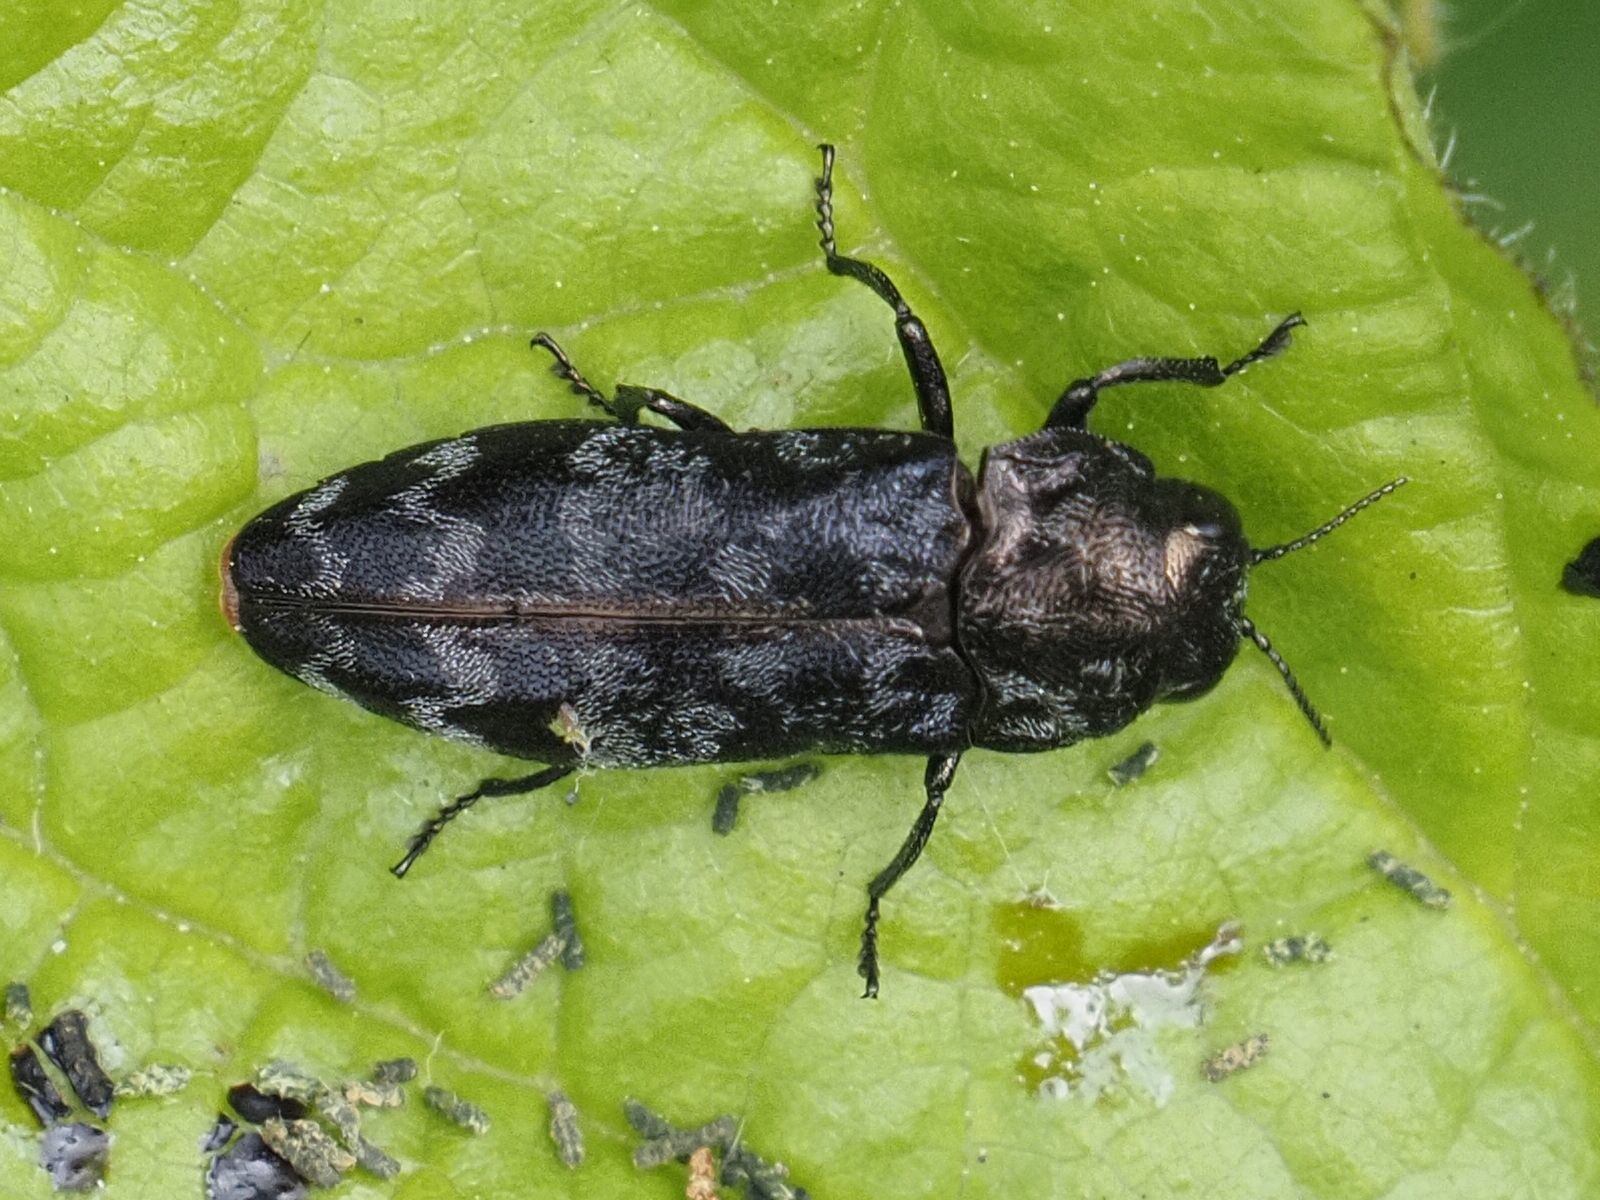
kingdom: Animalia
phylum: Arthropoda
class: Insecta
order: Coleoptera
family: Buprestidae
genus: Coraebus
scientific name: Coraebus rubi
